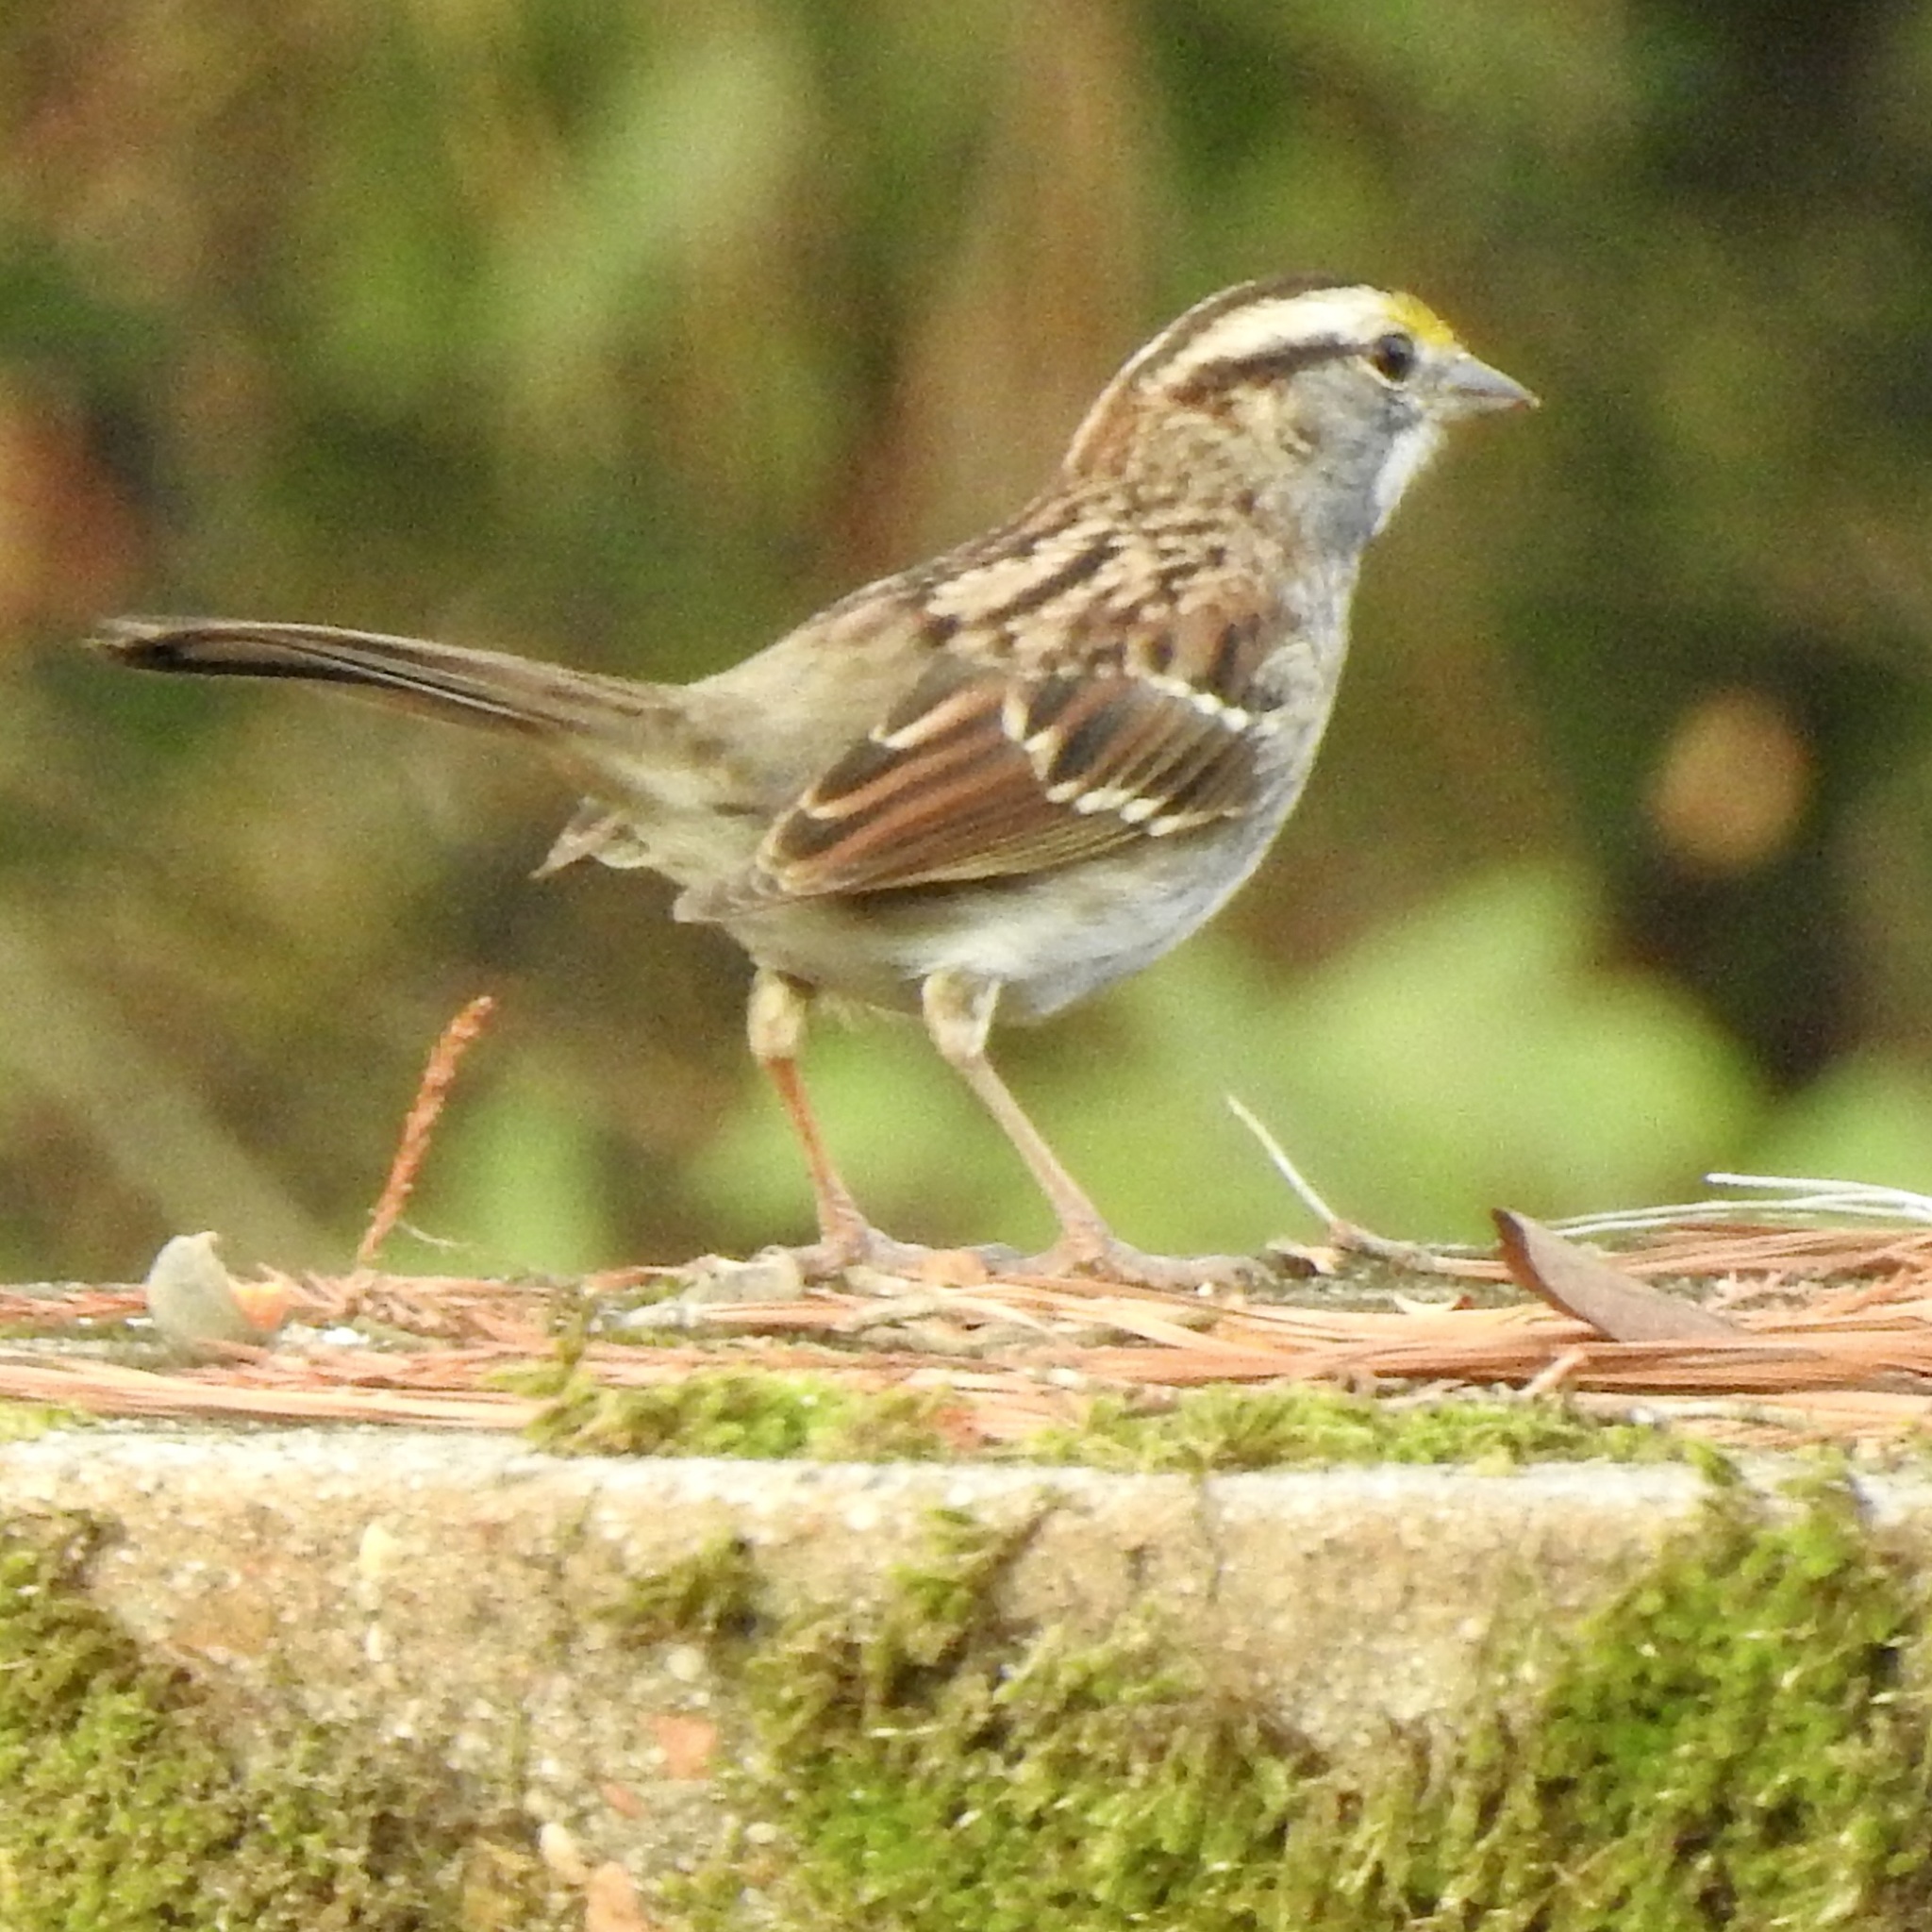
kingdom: Animalia
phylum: Chordata
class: Aves
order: Passeriformes
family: Passerellidae
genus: Zonotrichia
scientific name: Zonotrichia albicollis
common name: White-throated sparrow
